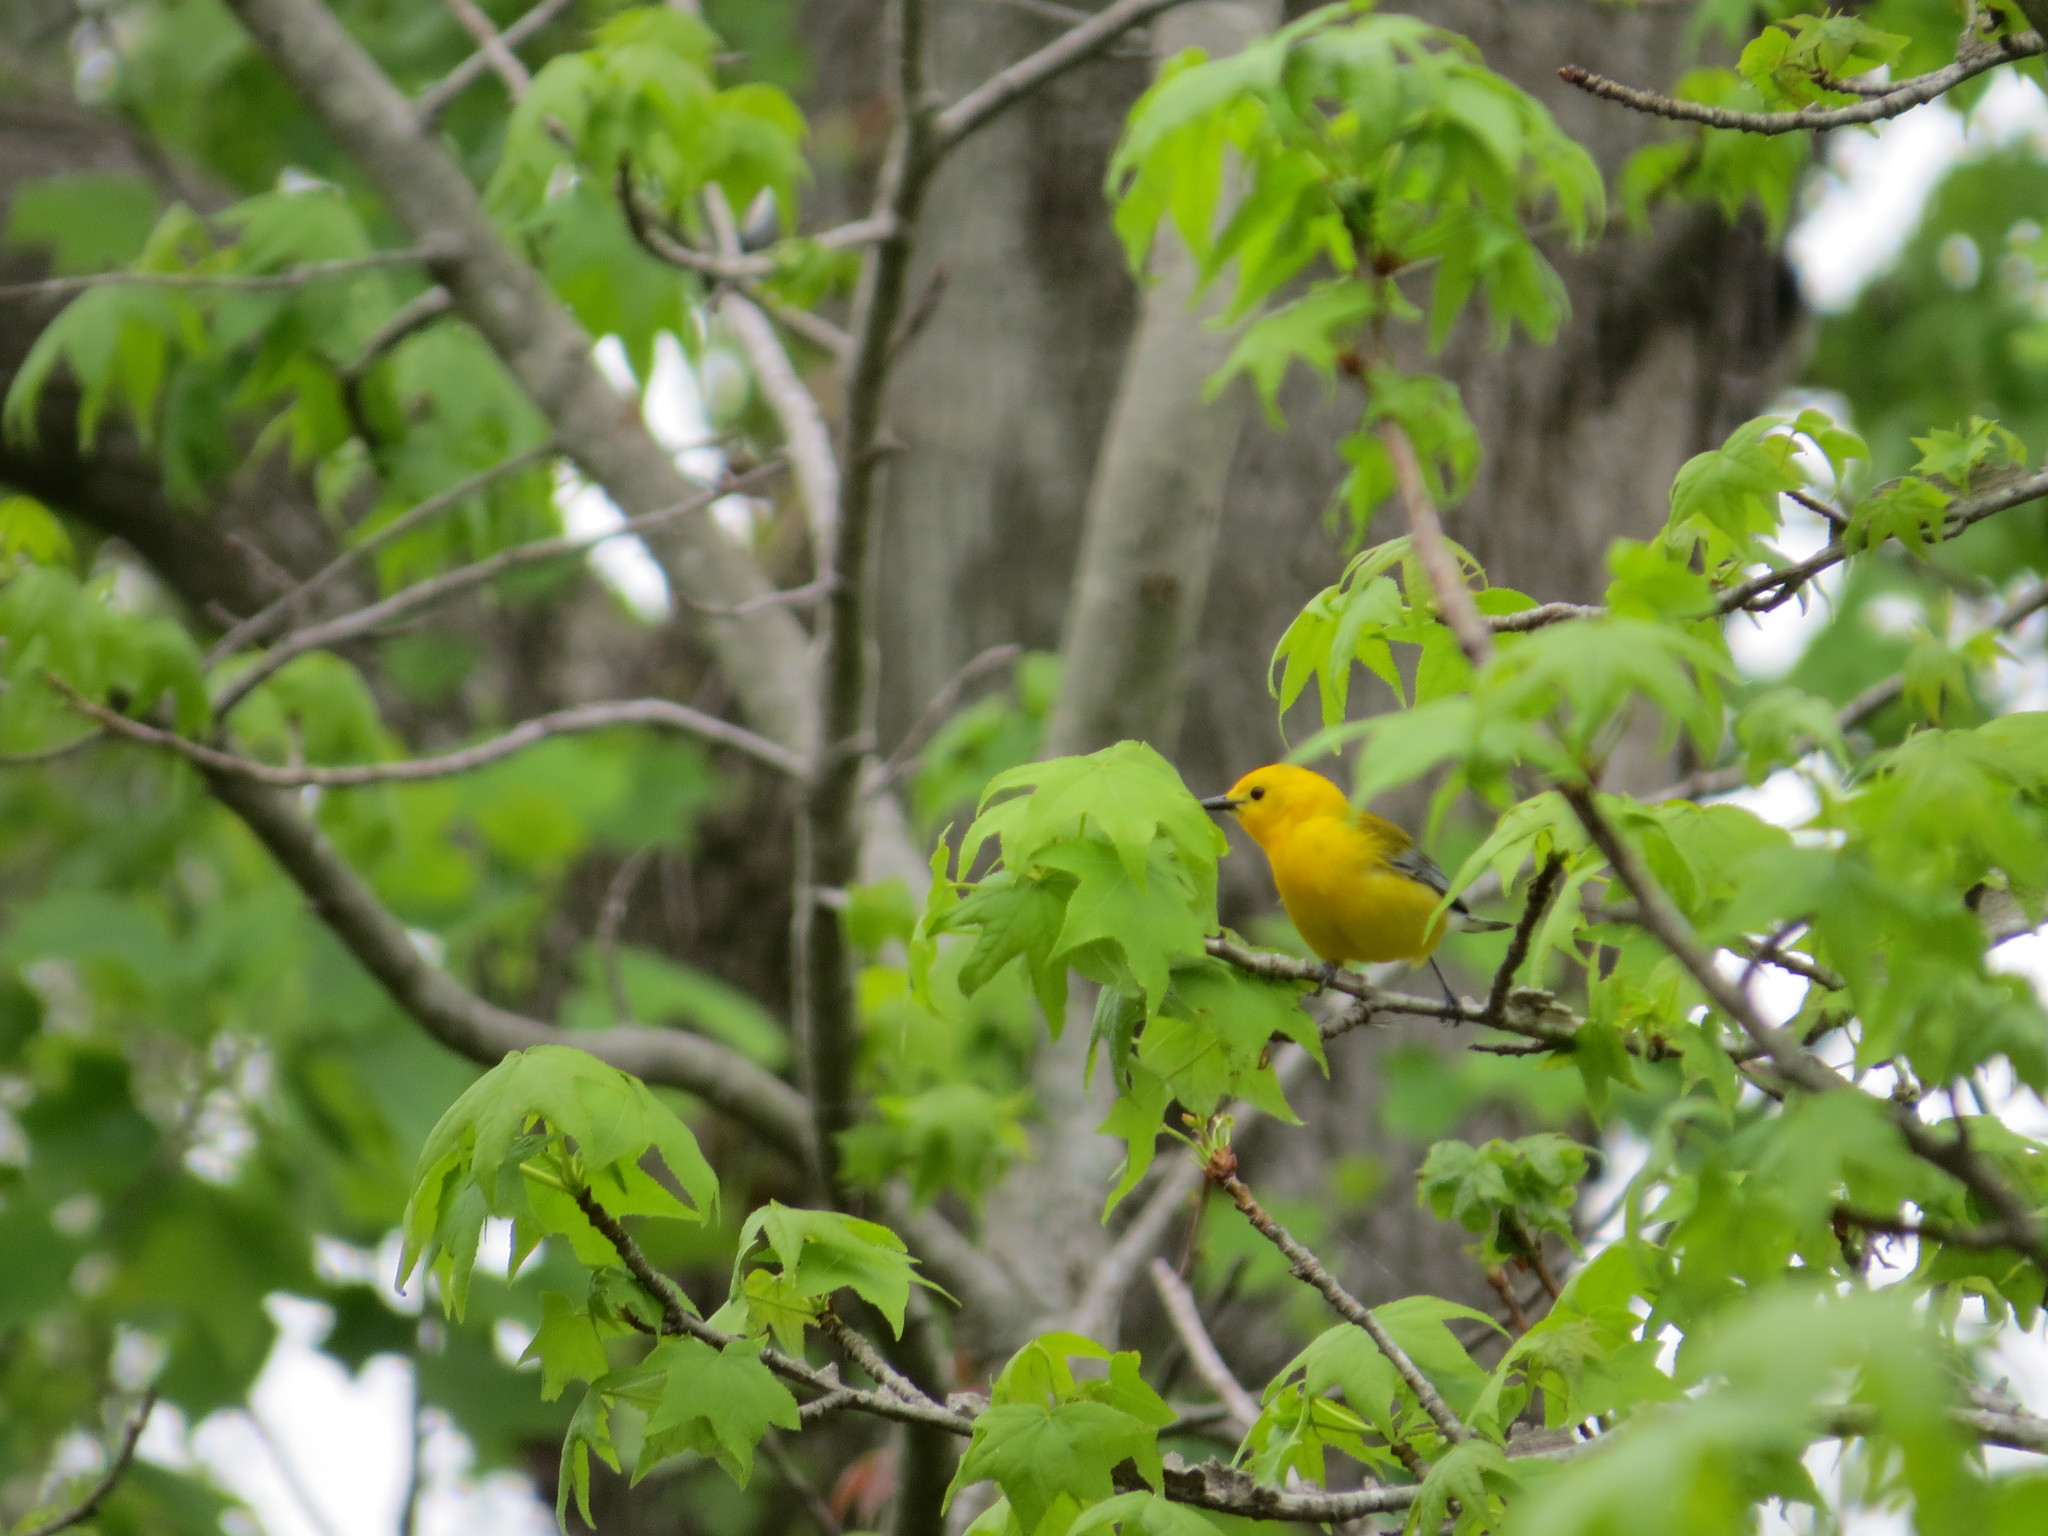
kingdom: Animalia
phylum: Chordata
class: Aves
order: Passeriformes
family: Parulidae
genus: Protonotaria
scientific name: Protonotaria citrea
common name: Prothonotary warbler
